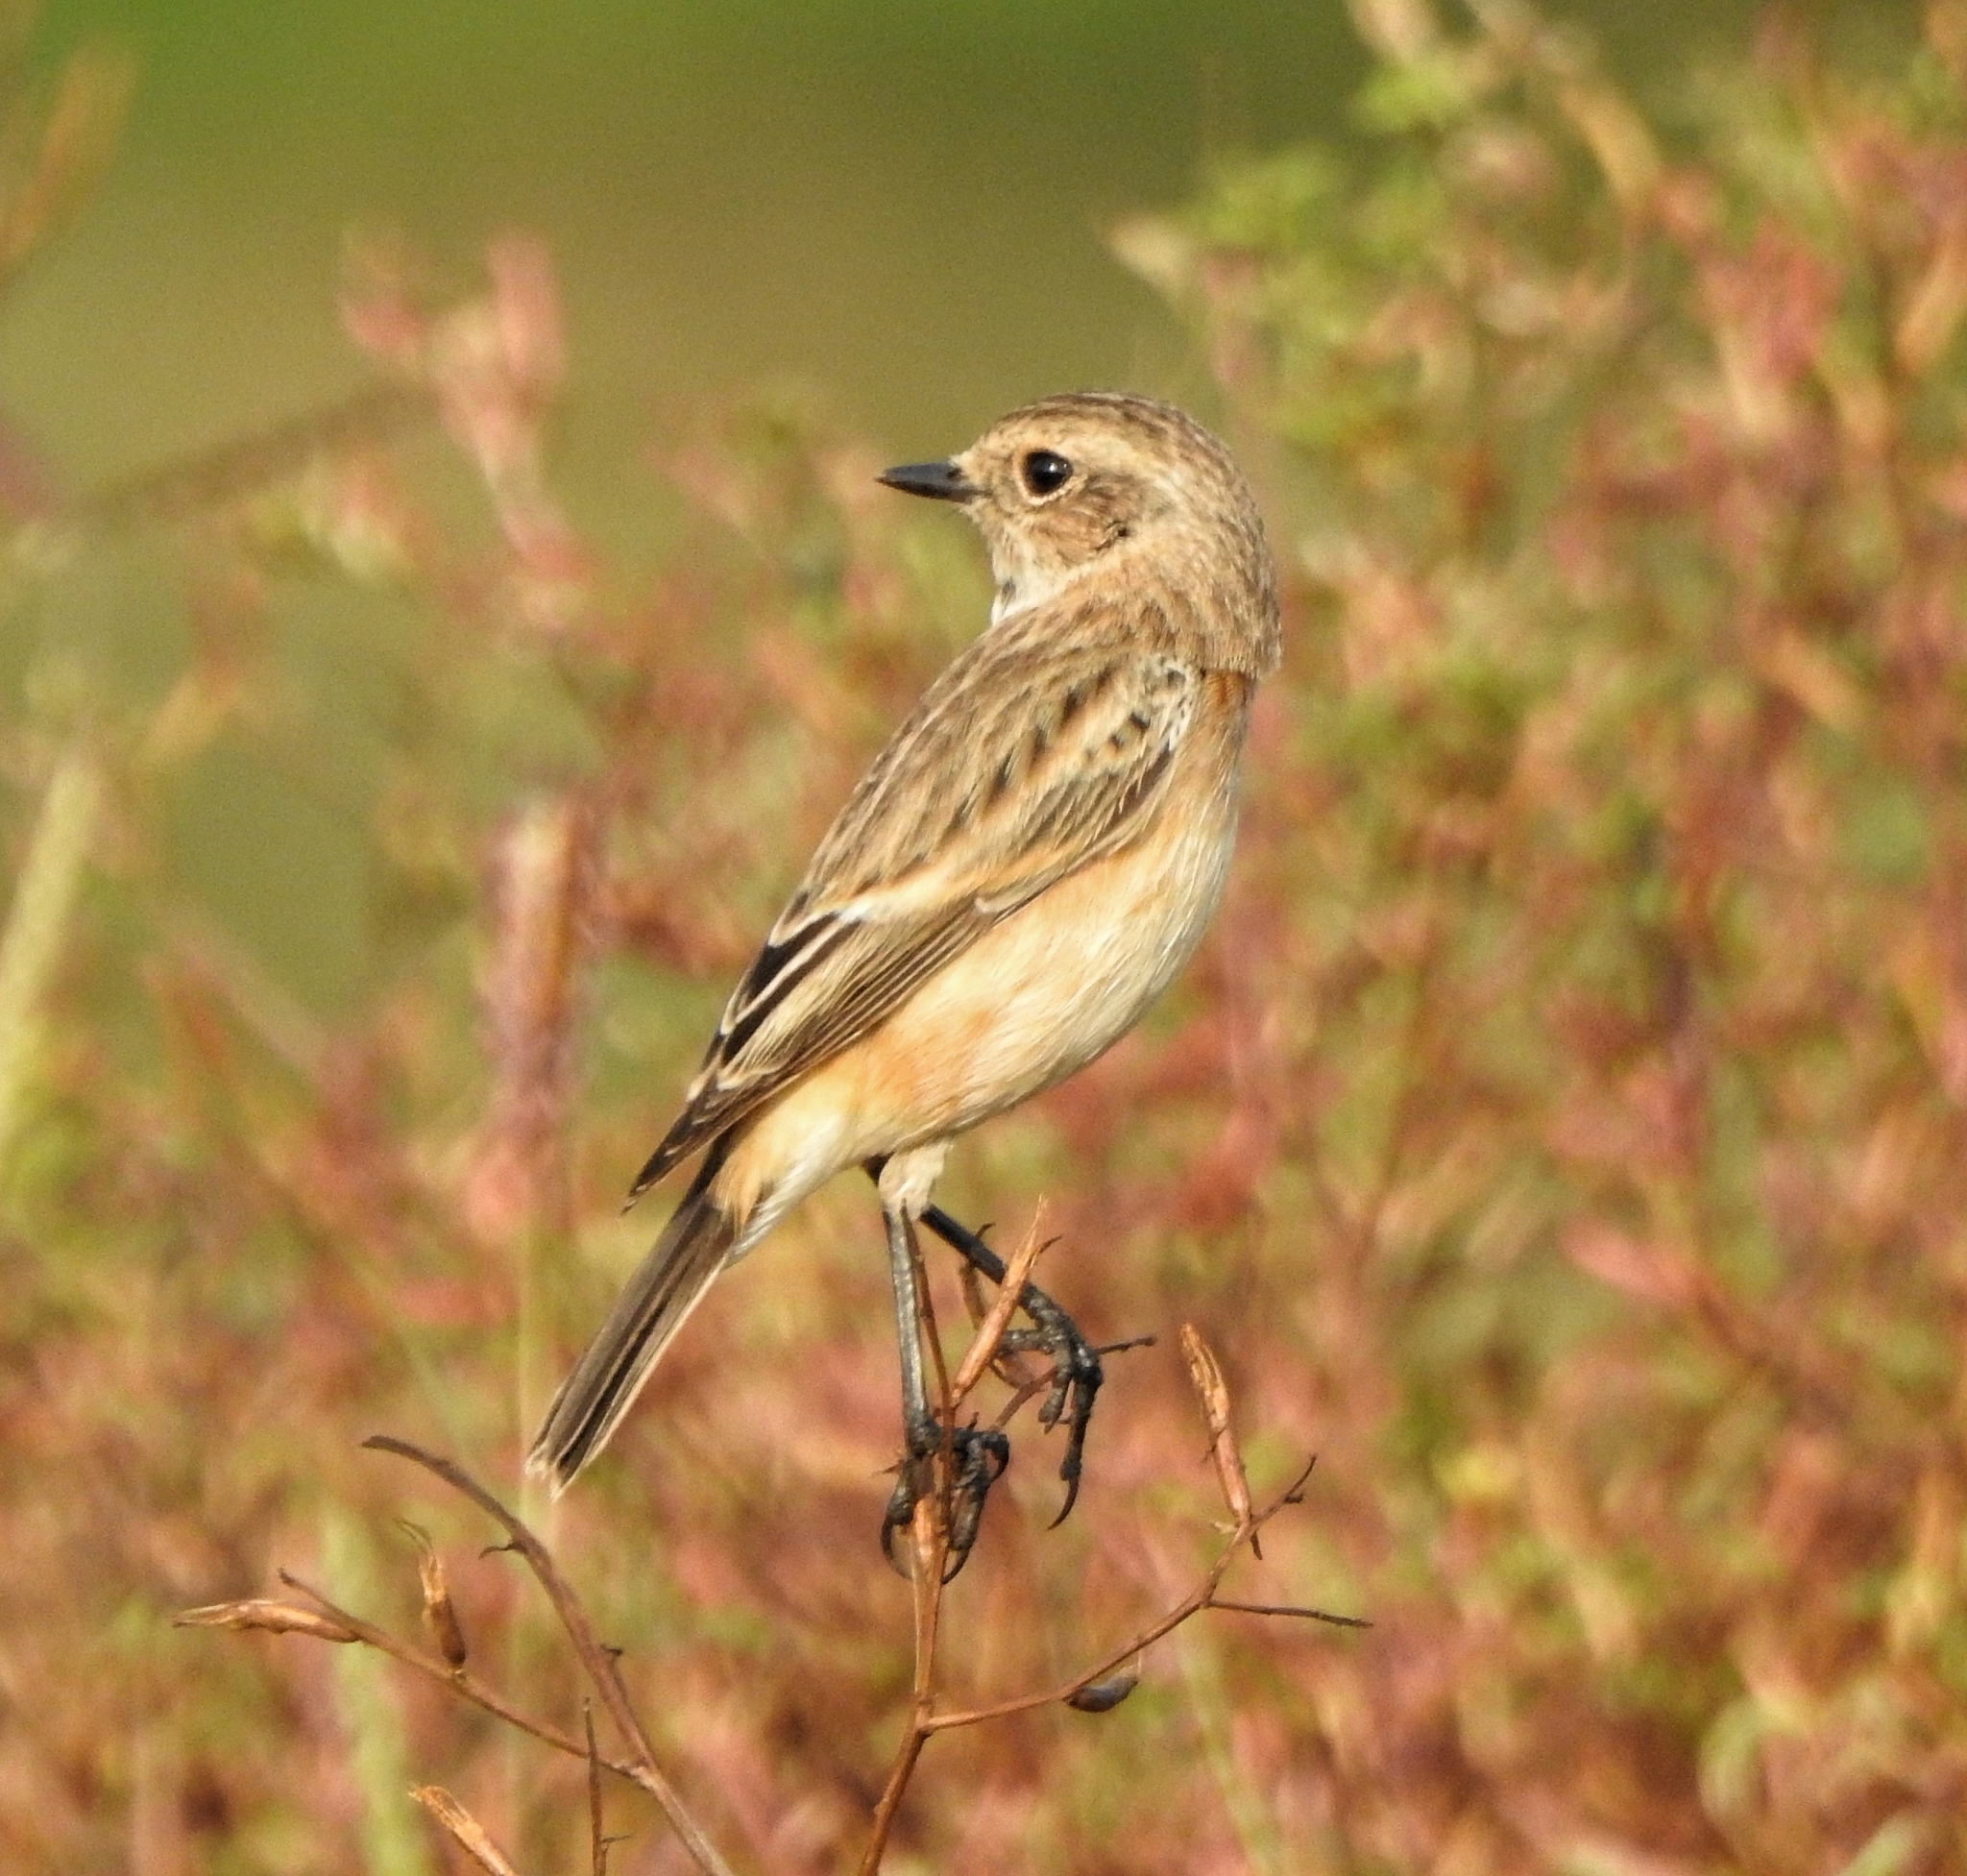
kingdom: Animalia
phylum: Chordata
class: Aves
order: Passeriformes
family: Muscicapidae
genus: Saxicola
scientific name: Saxicola maurus
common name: Siberian stonechat
